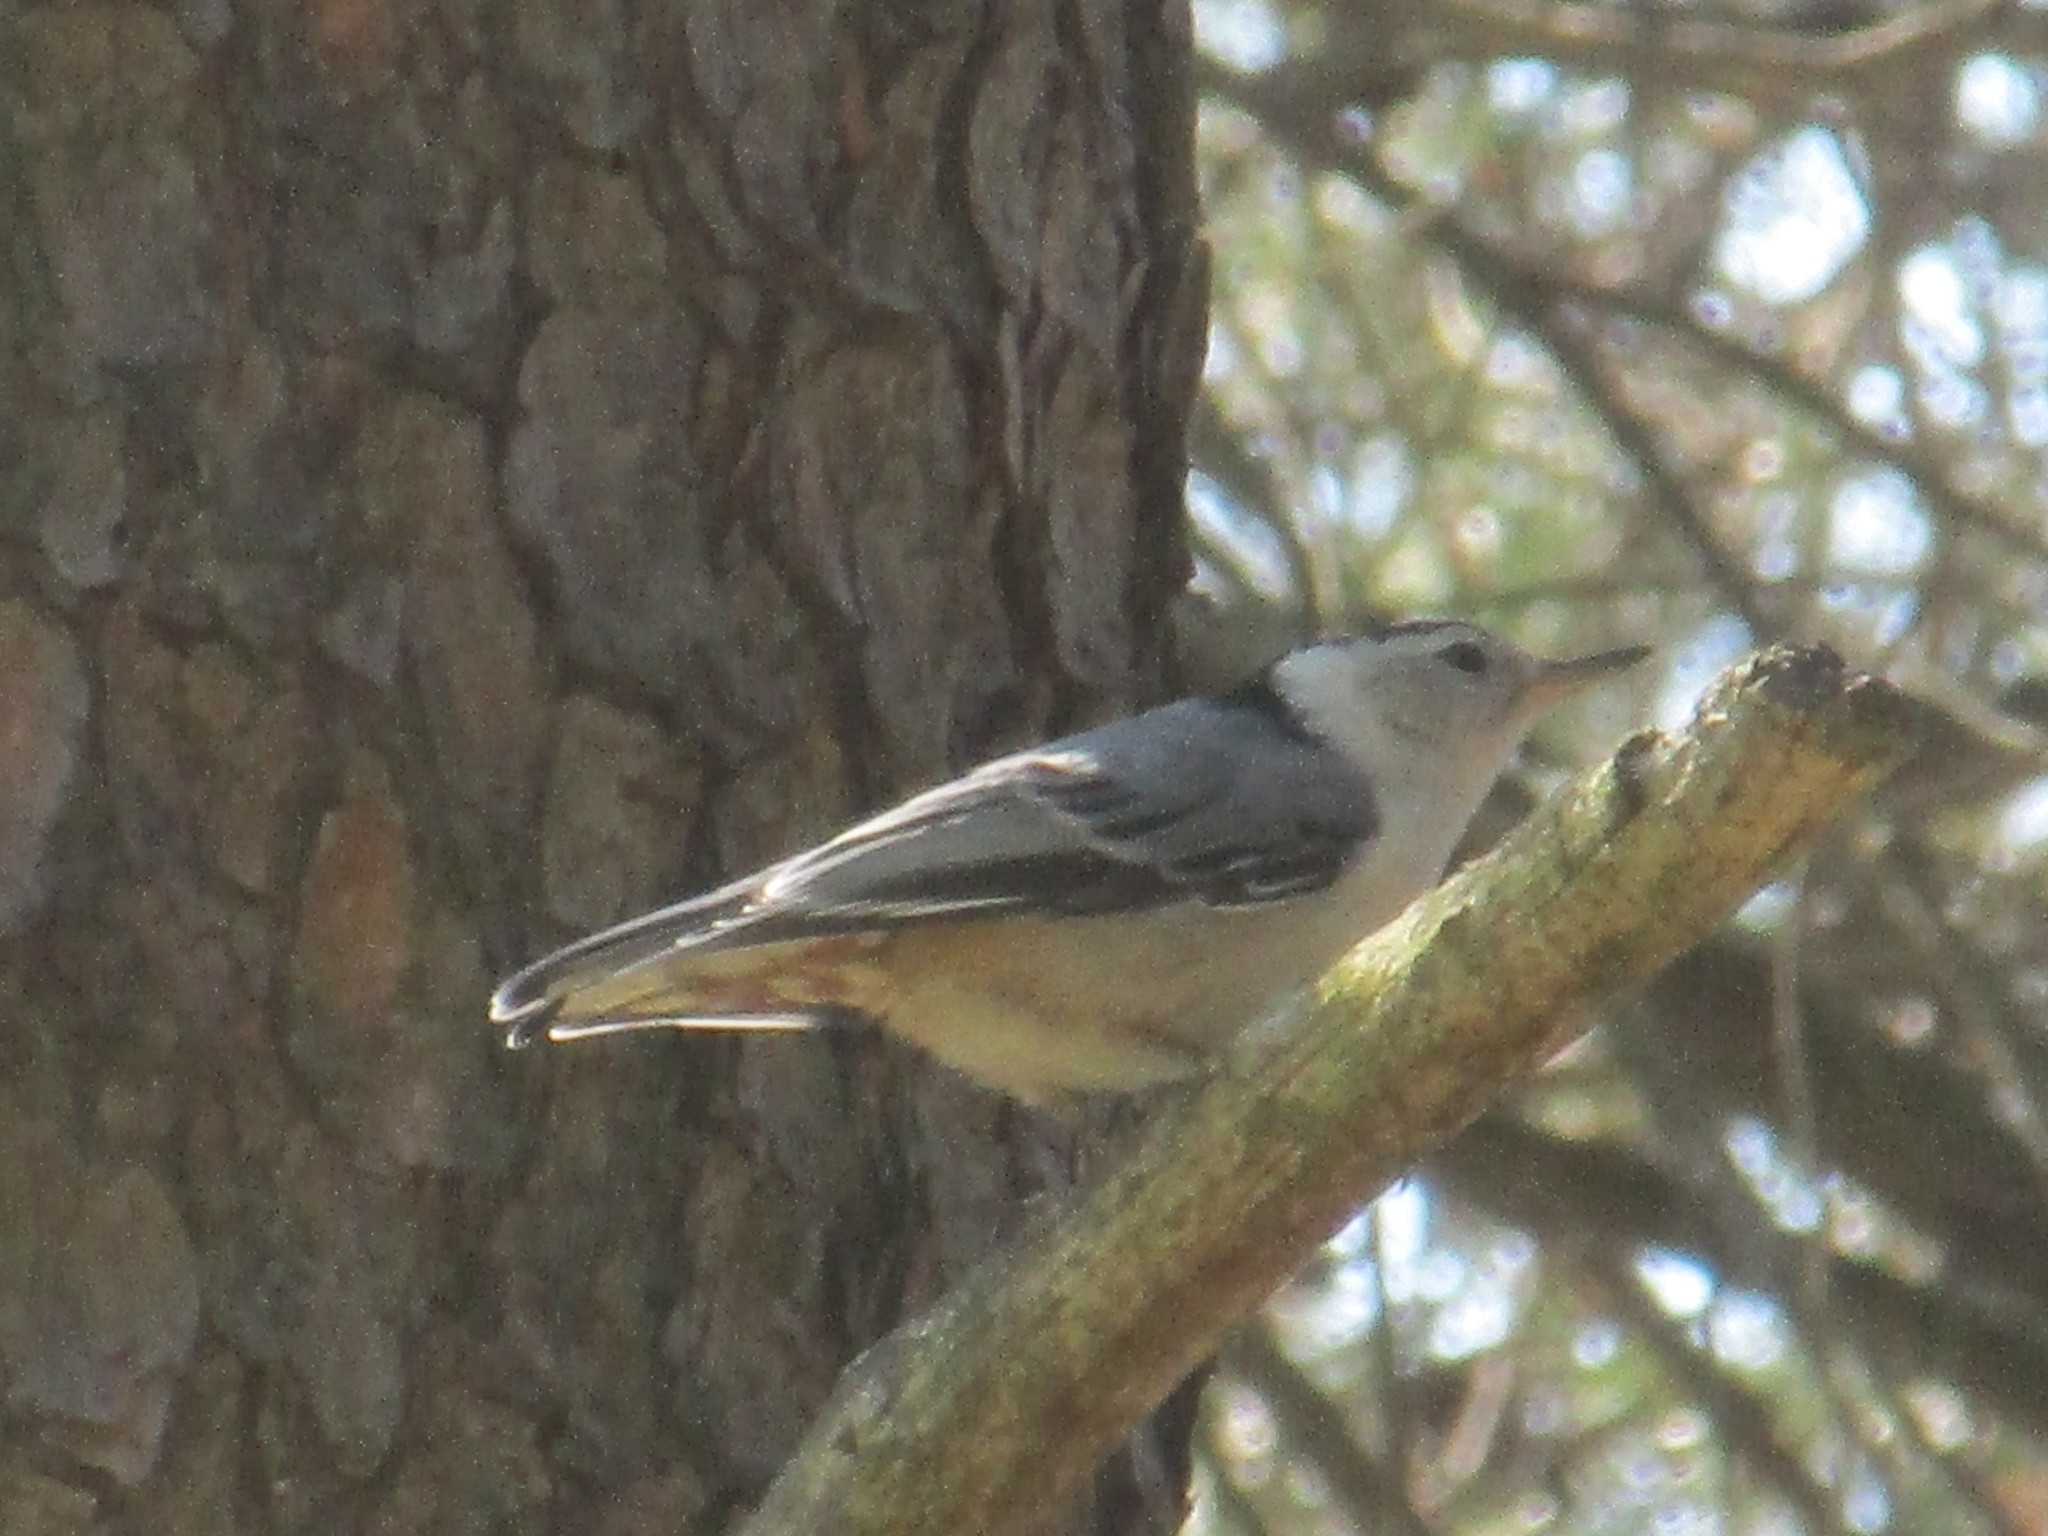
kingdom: Animalia
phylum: Chordata
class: Aves
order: Passeriformes
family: Sittidae
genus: Sitta
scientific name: Sitta carolinensis
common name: White-breasted nuthatch
